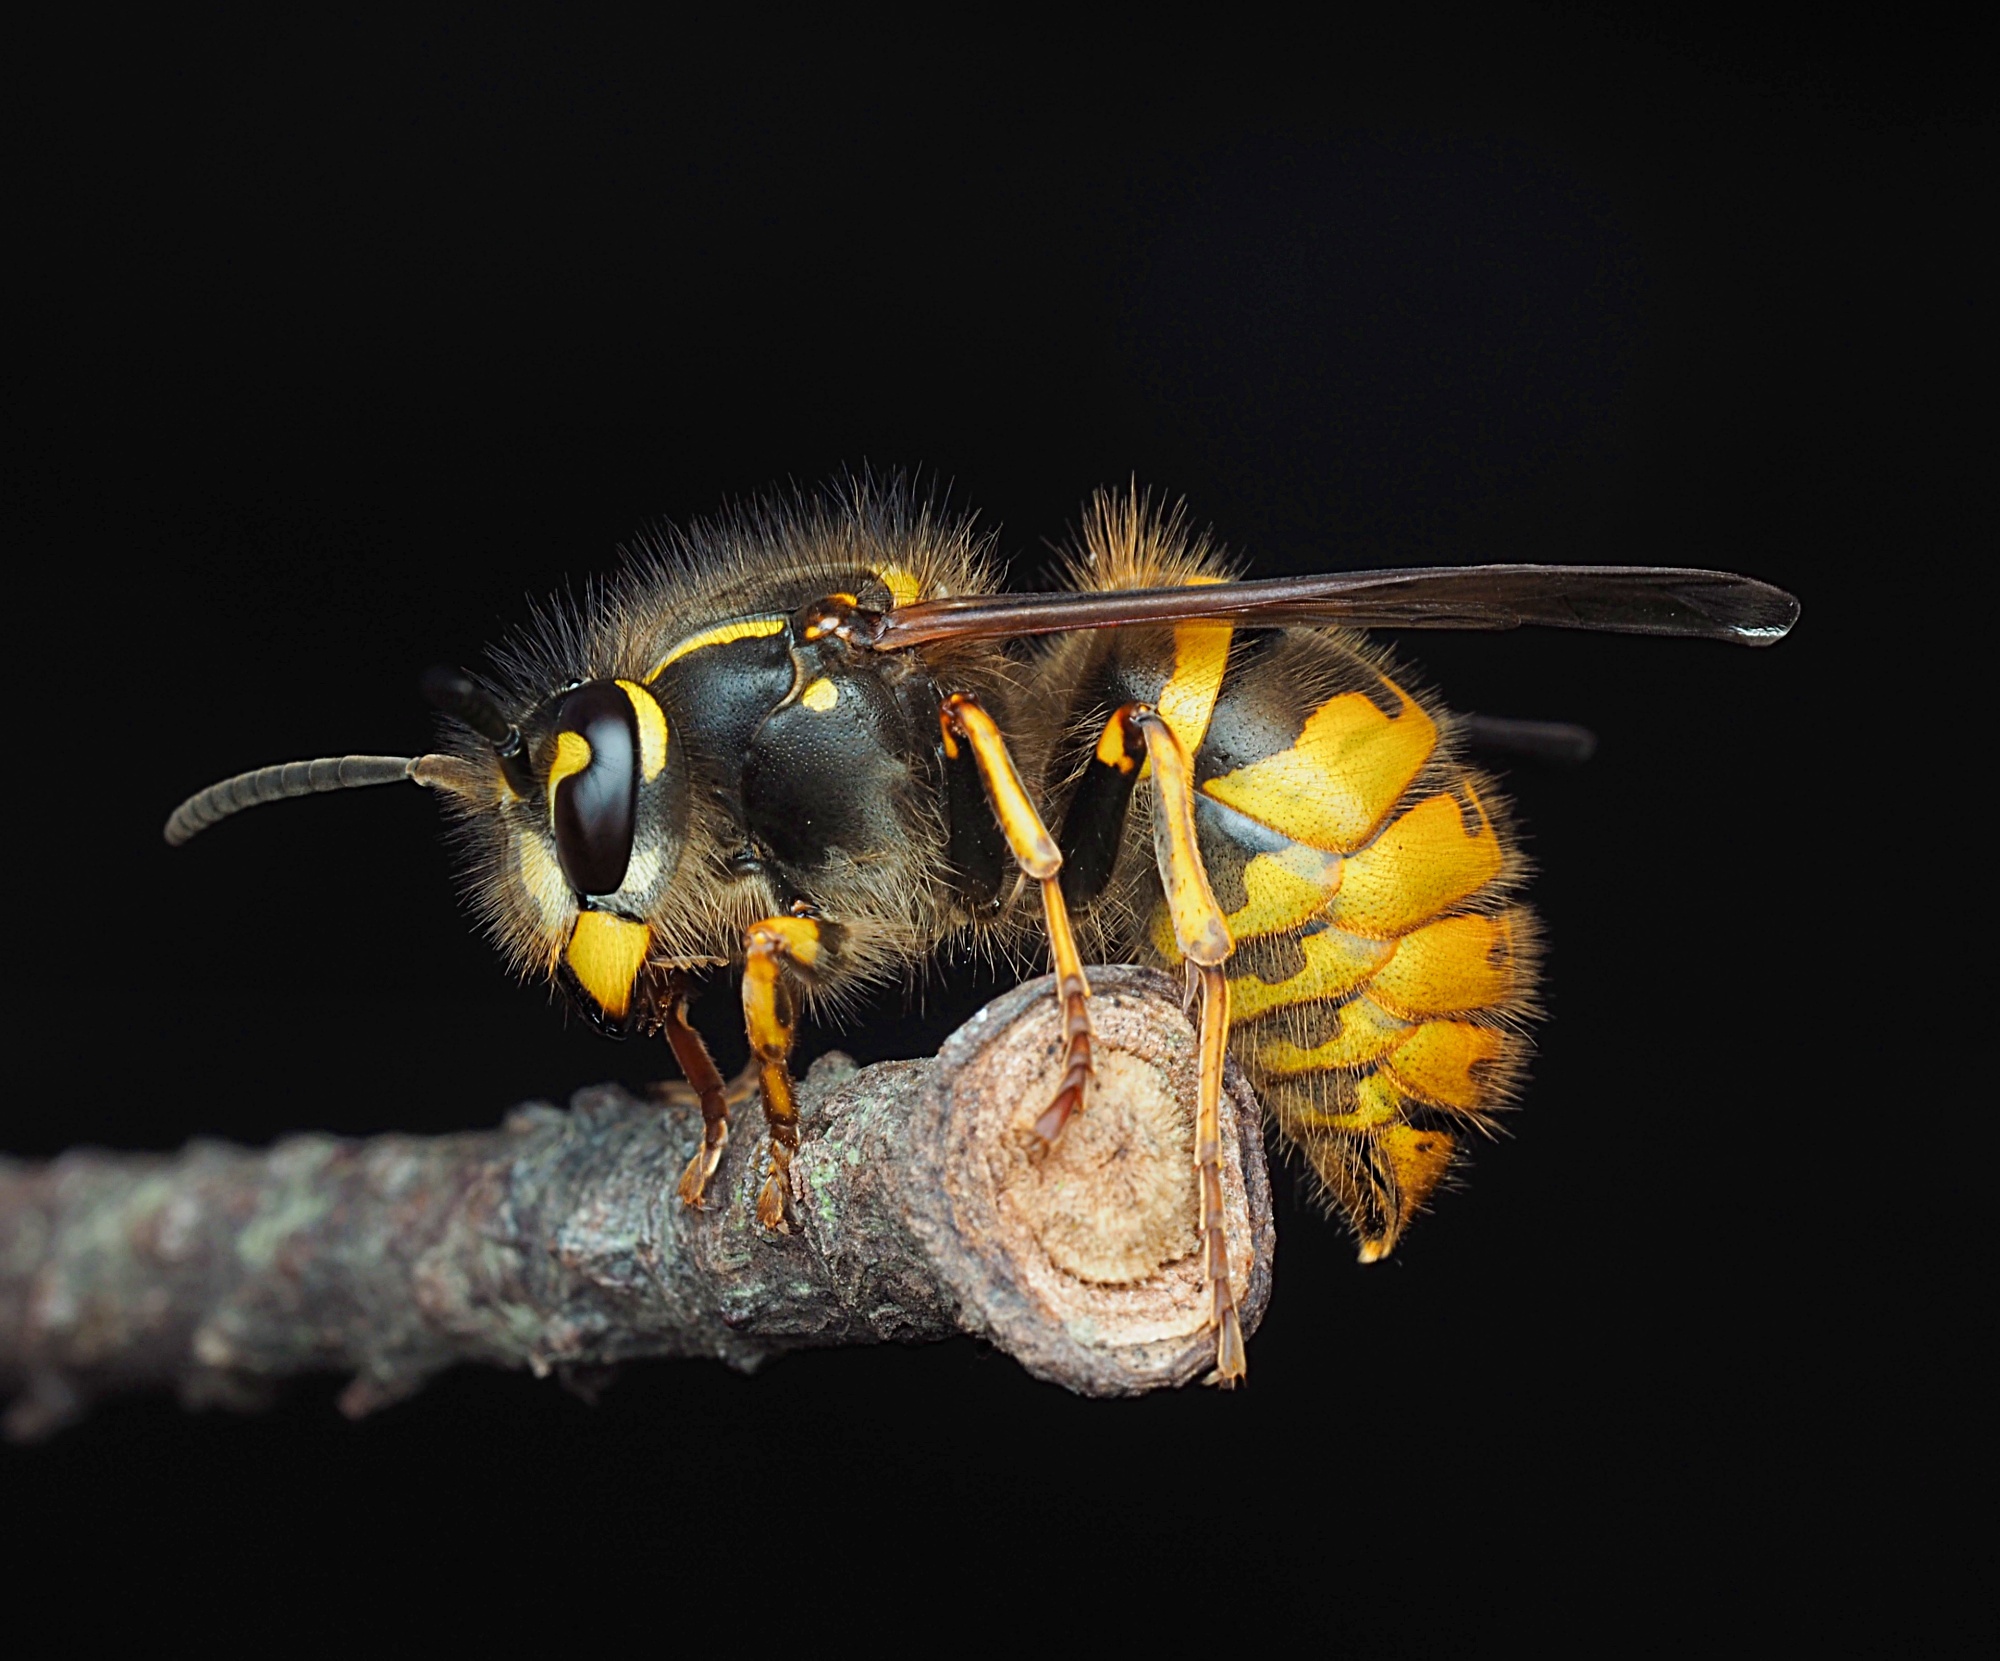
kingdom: Animalia
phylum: Arthropoda
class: Insecta
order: Hymenoptera
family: Vespidae
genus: Vespula
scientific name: Vespula vulgaris
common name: Common wasp
